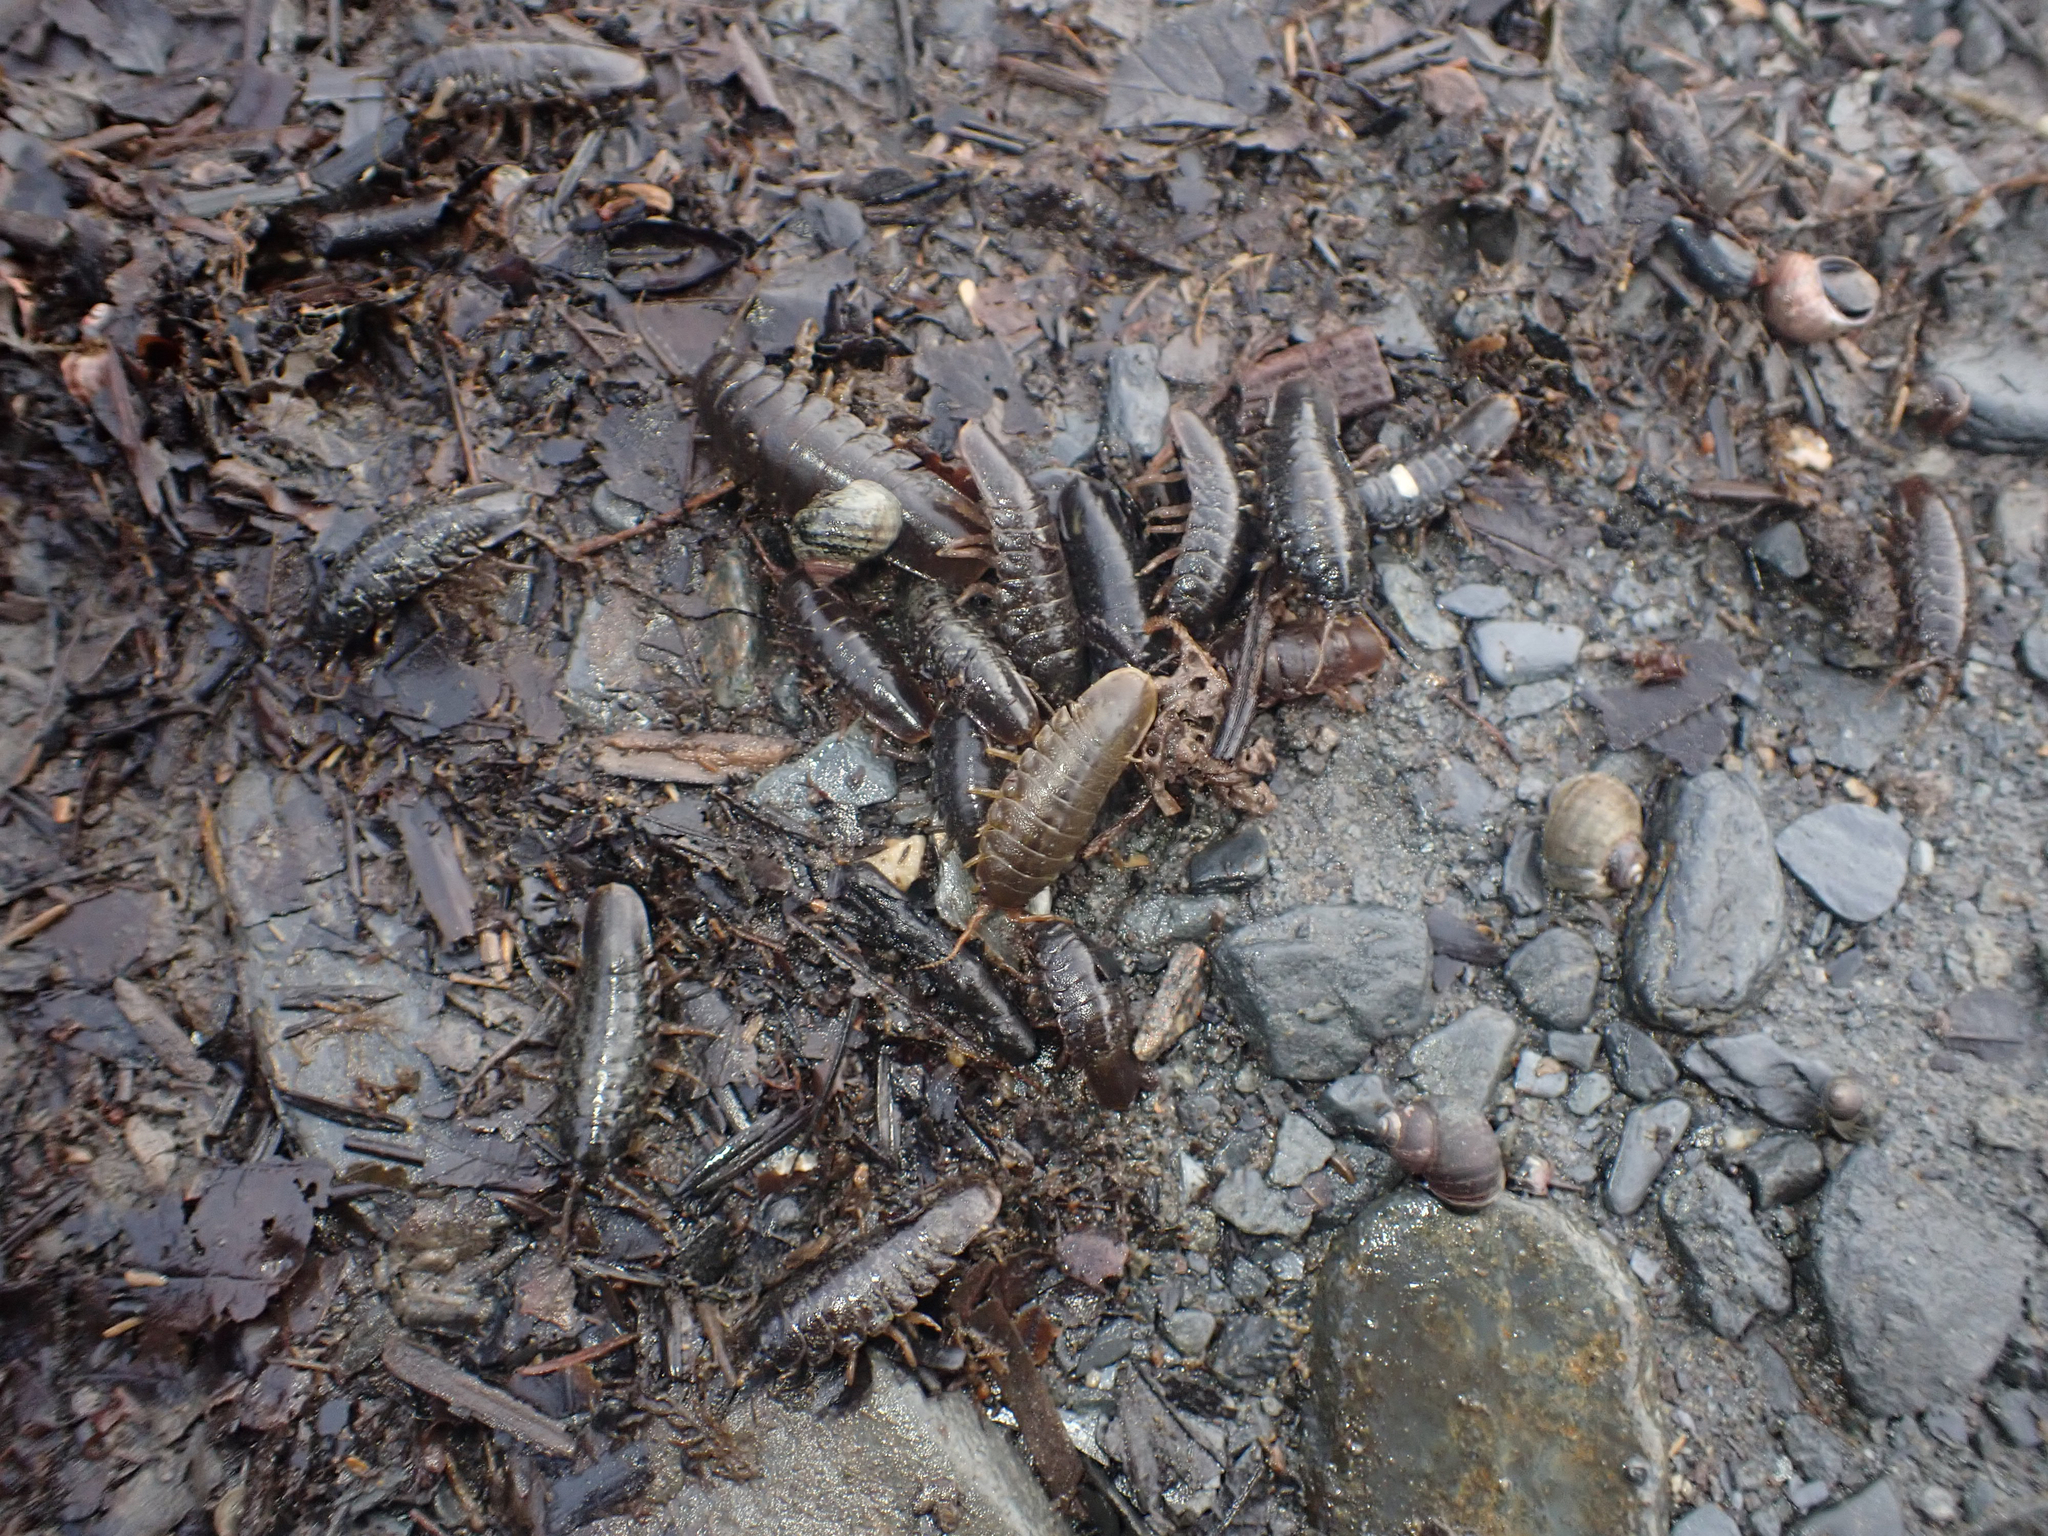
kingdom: Animalia
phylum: Arthropoda
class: Malacostraca
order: Isopoda
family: Idoteidae
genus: Pentidotea
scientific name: Pentidotea wosnesenskii
